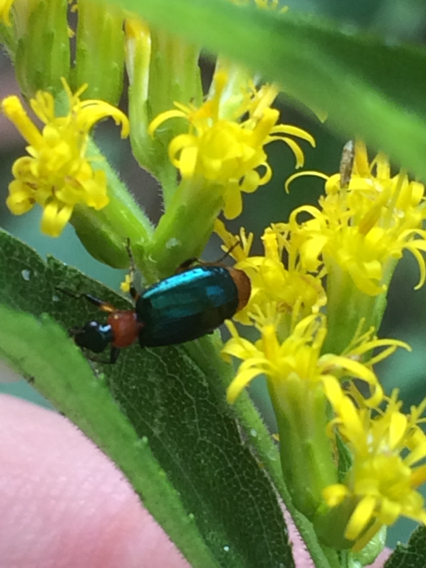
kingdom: Animalia
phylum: Arthropoda
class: Insecta
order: Coleoptera
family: Carabidae
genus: Lebia
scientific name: Lebia viridipennis
